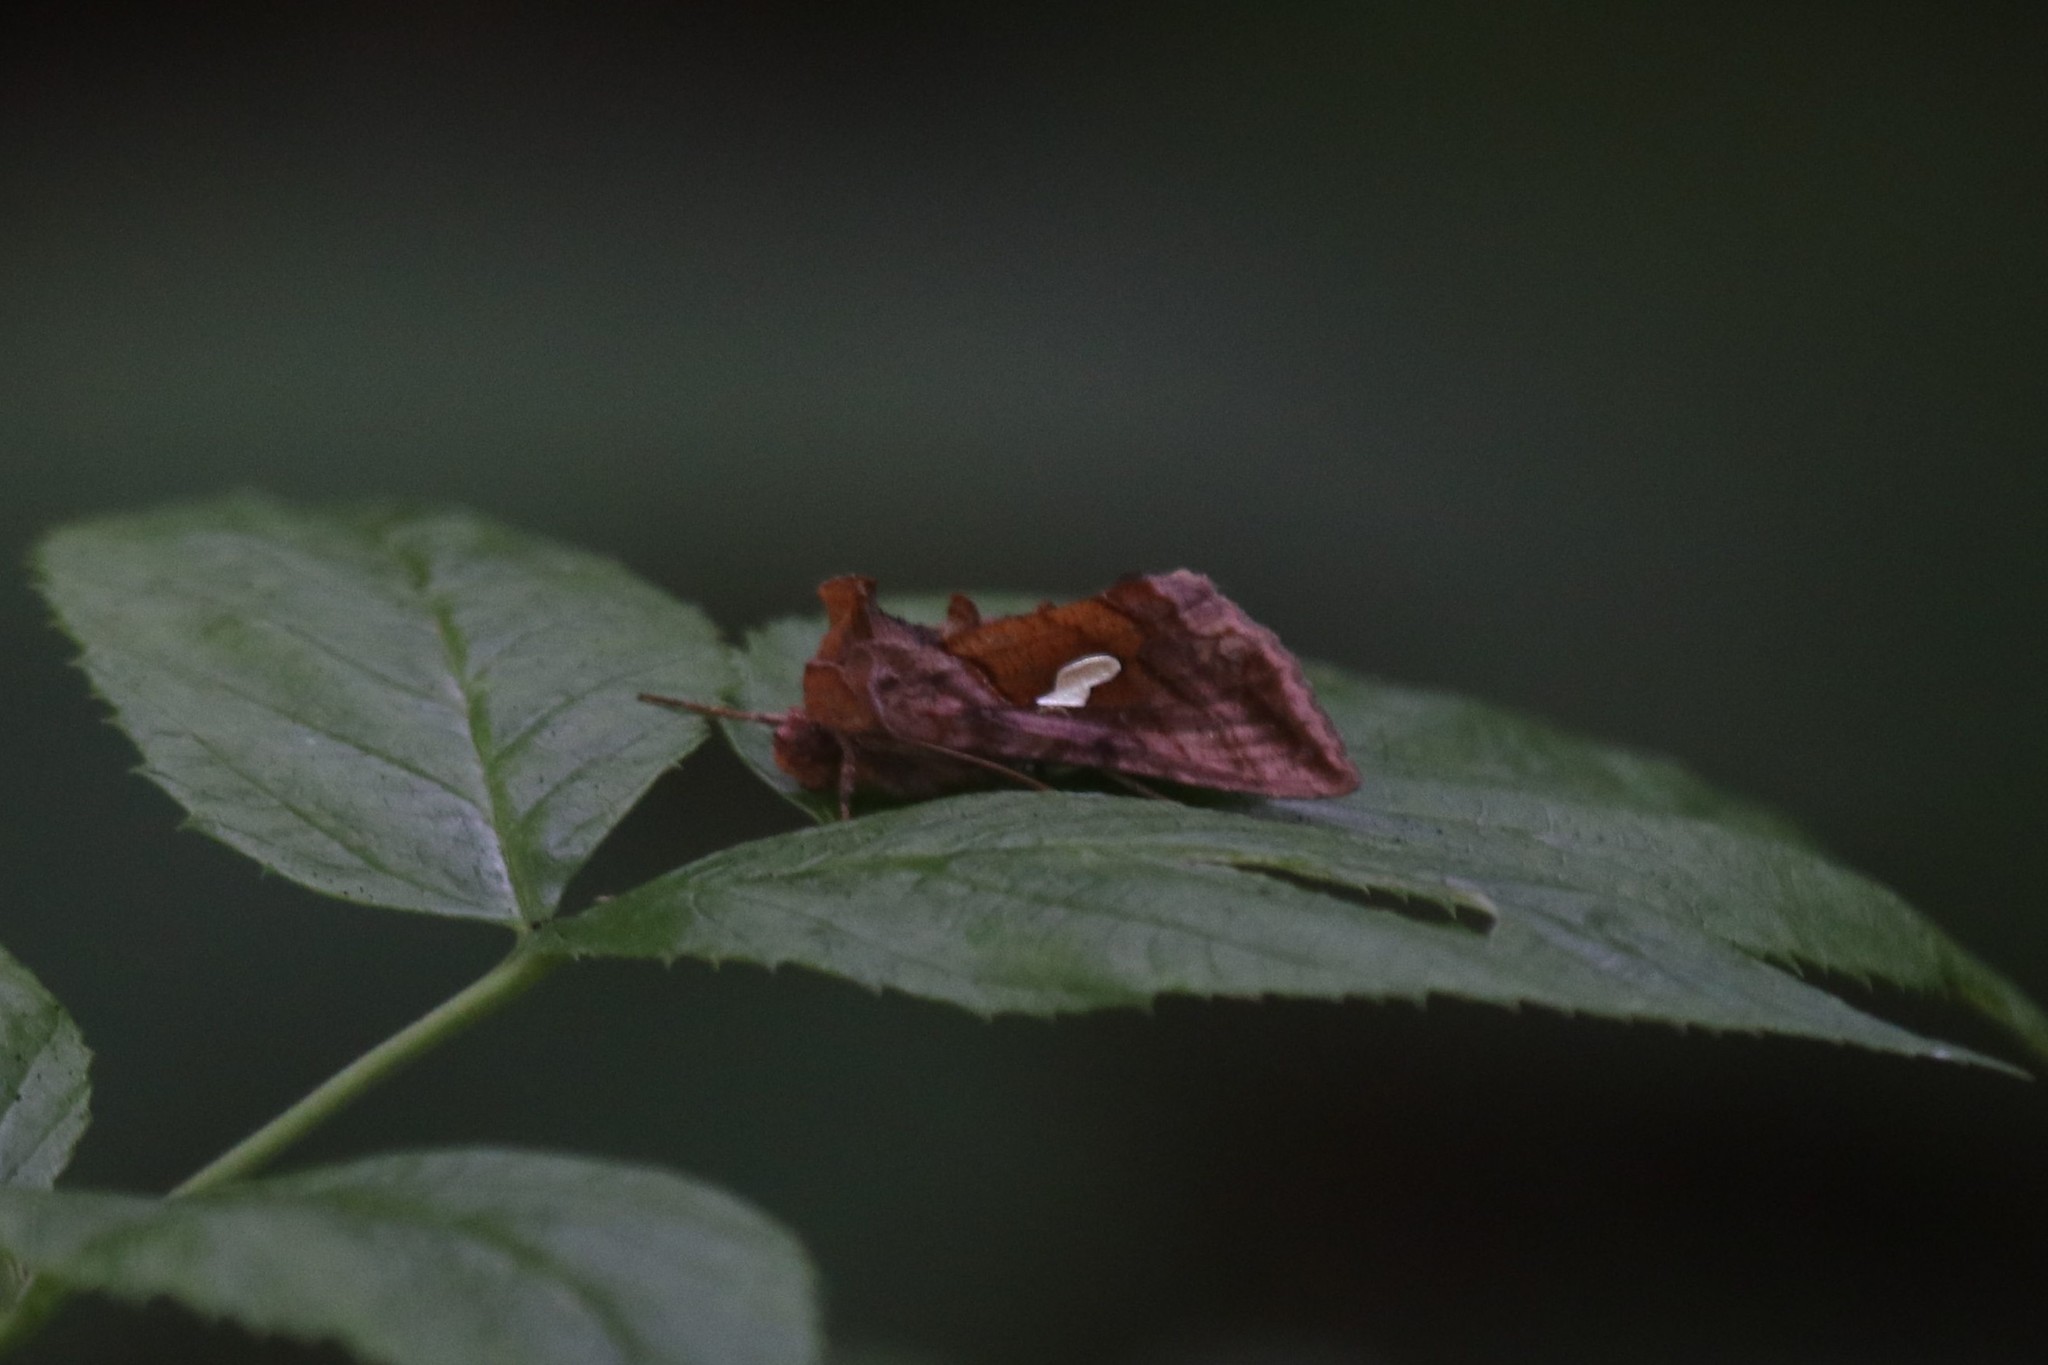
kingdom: Animalia
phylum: Arthropoda
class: Insecta
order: Lepidoptera
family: Noctuidae
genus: Autographa
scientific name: Autographa excelsa
